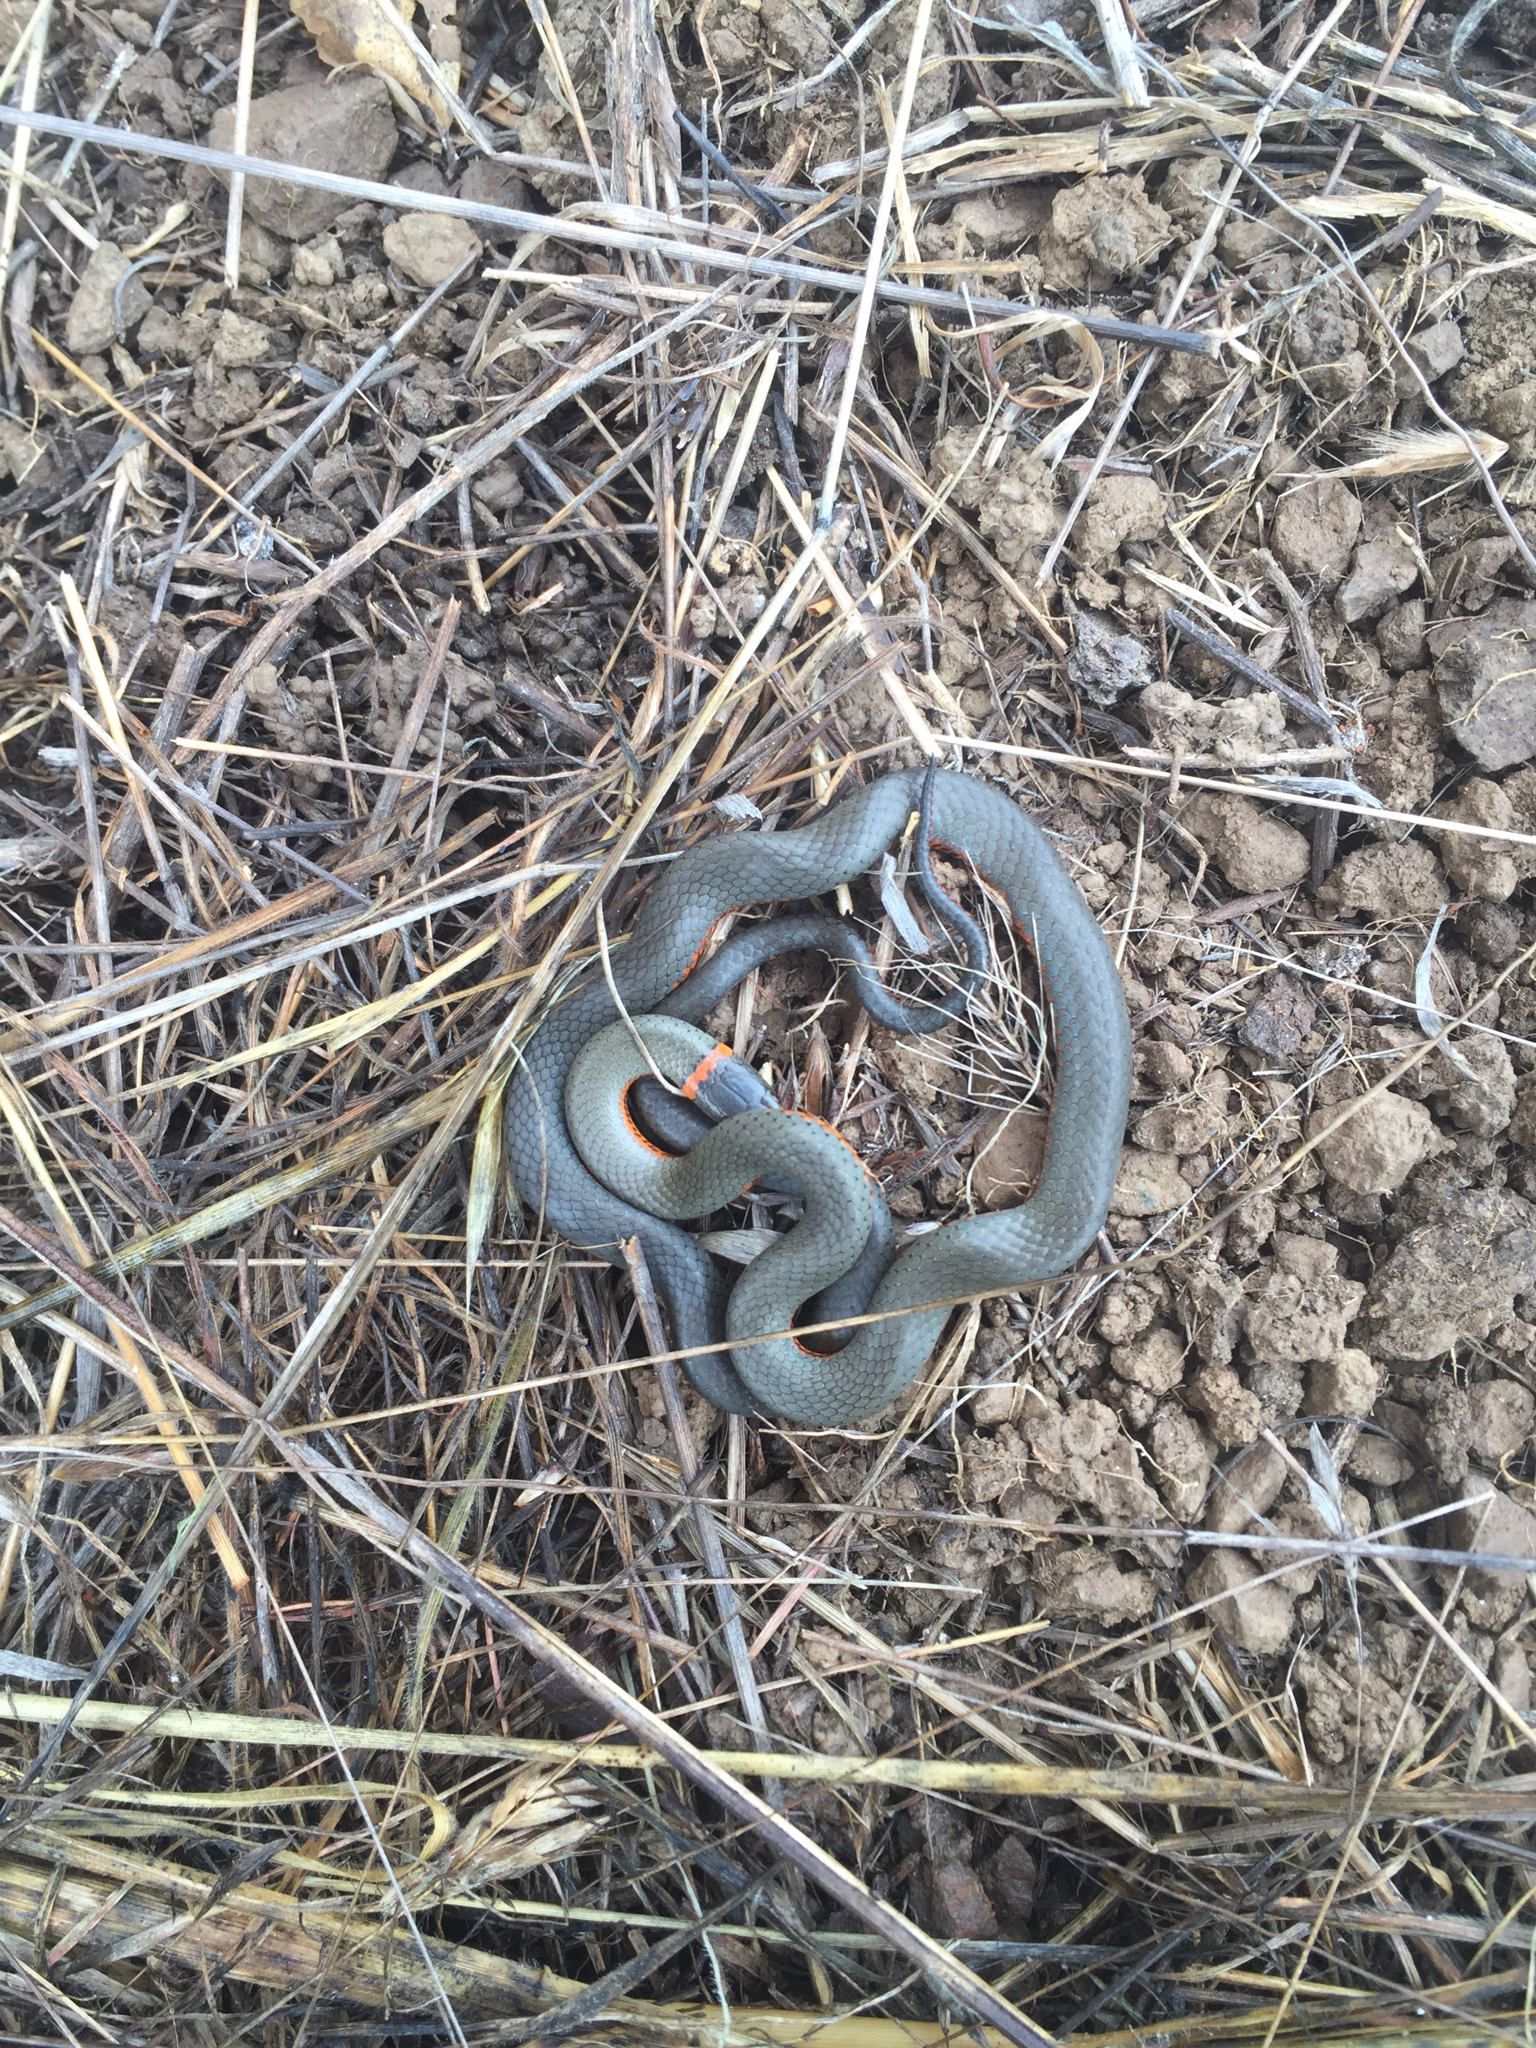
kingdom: Animalia
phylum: Chordata
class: Squamata
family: Colubridae
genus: Diadophis
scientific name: Diadophis punctatus
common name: Ringneck snake
